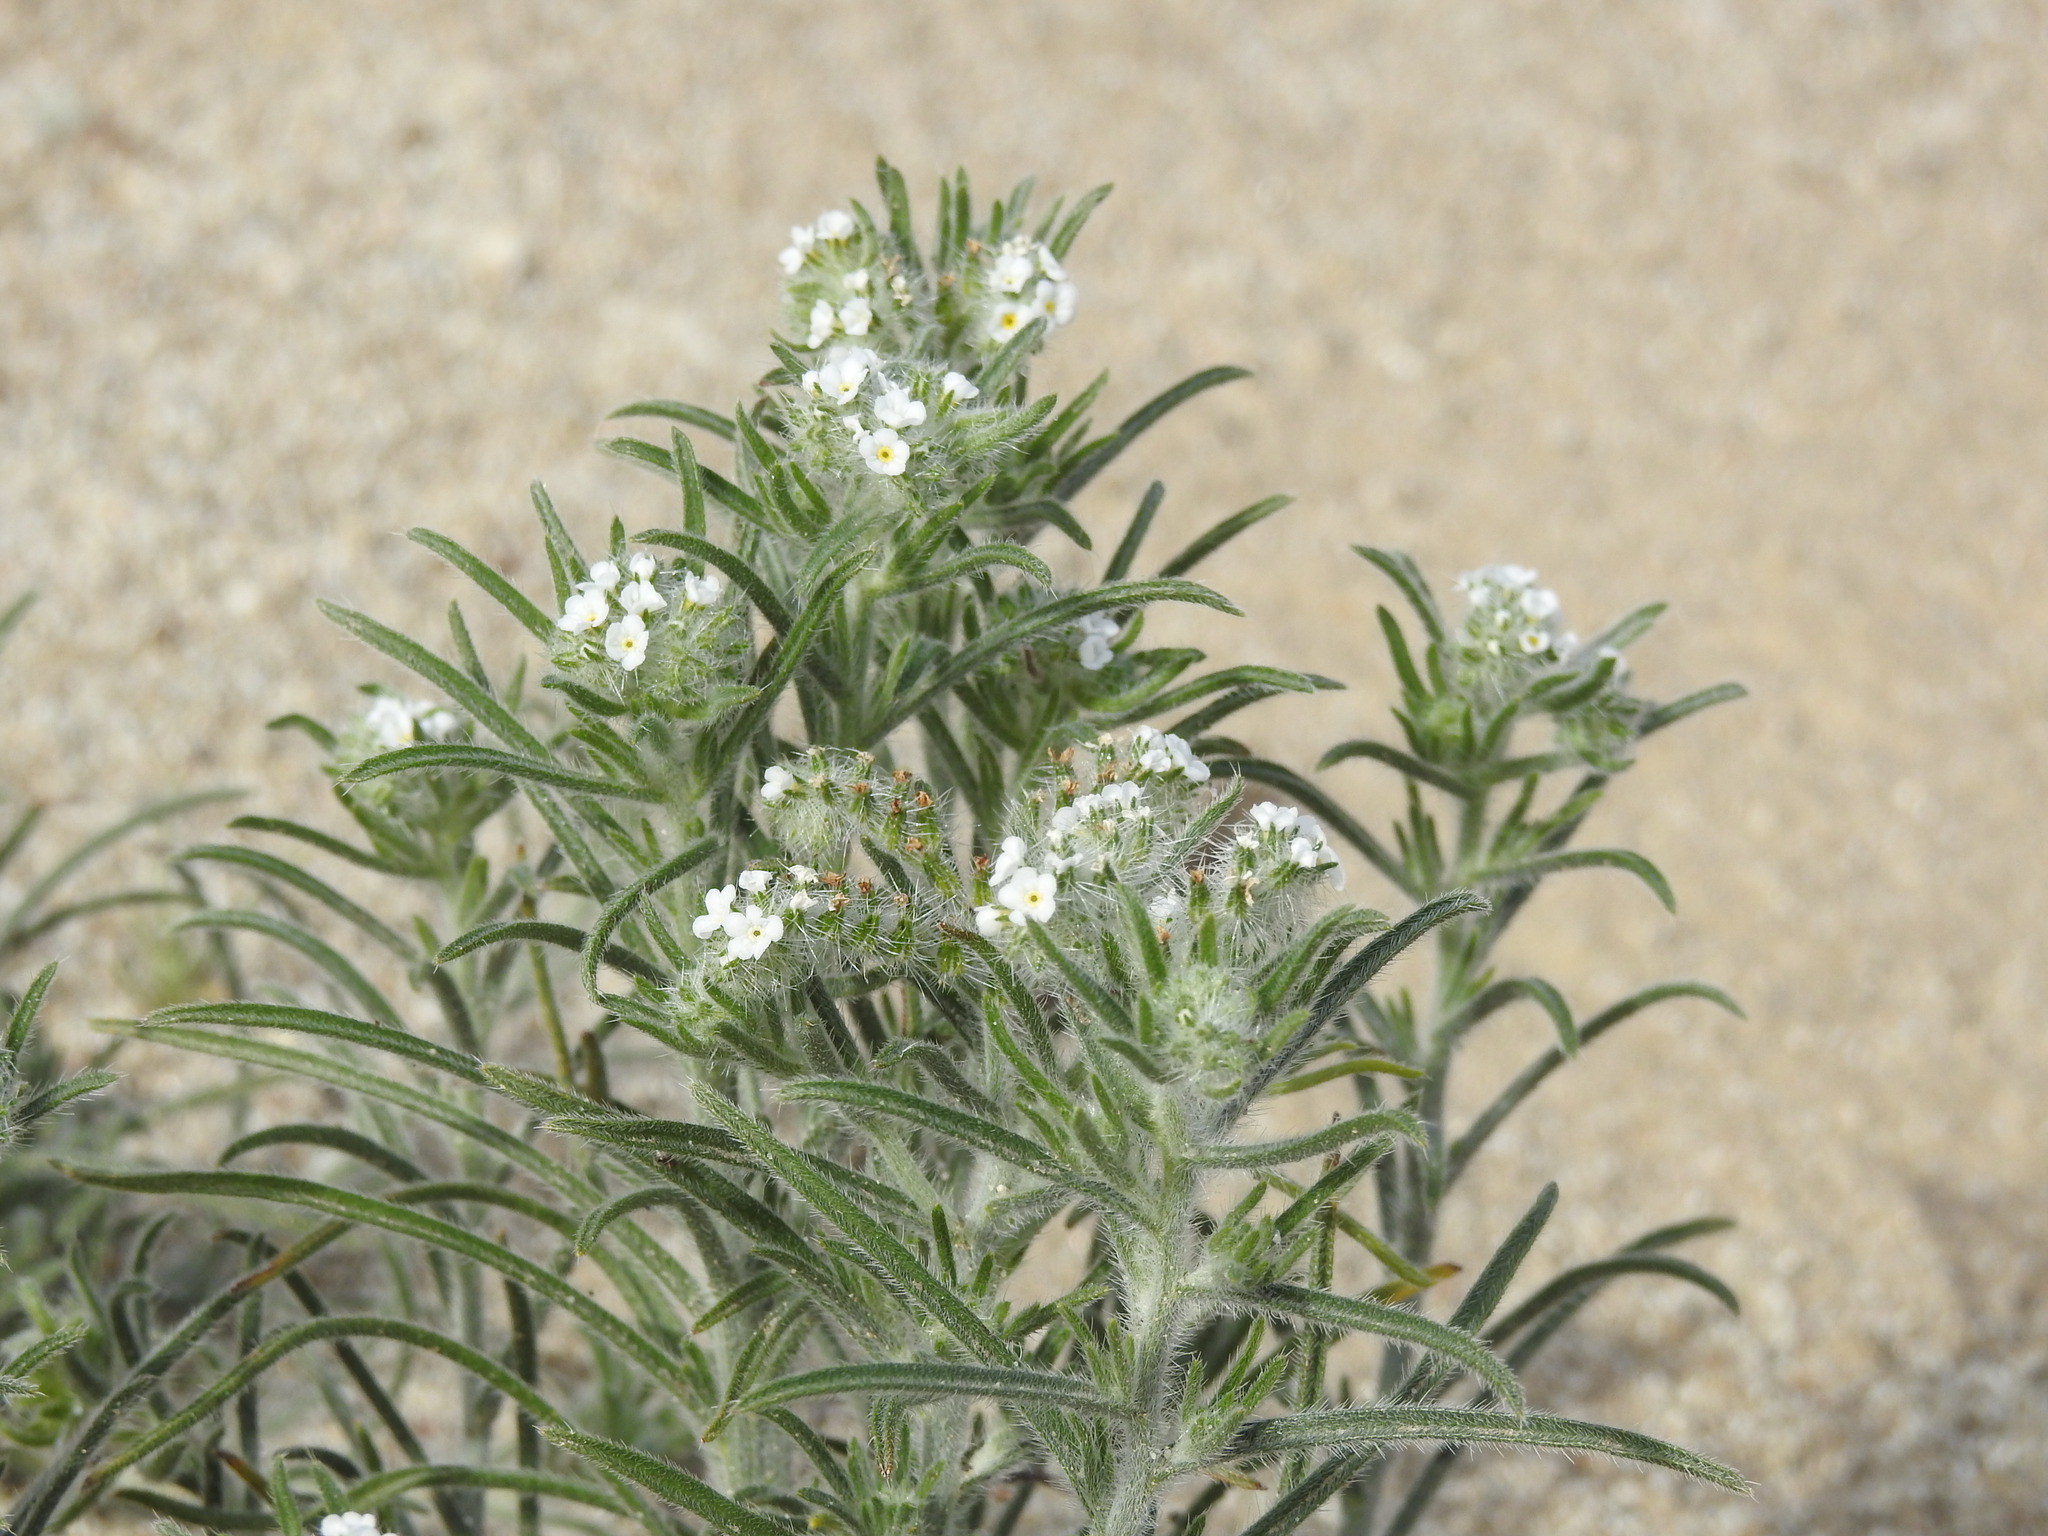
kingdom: Plantae
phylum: Tracheophyta
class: Magnoliopsida
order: Boraginales
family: Boraginaceae
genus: Johnstonella
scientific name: Johnstonella angustifolia
